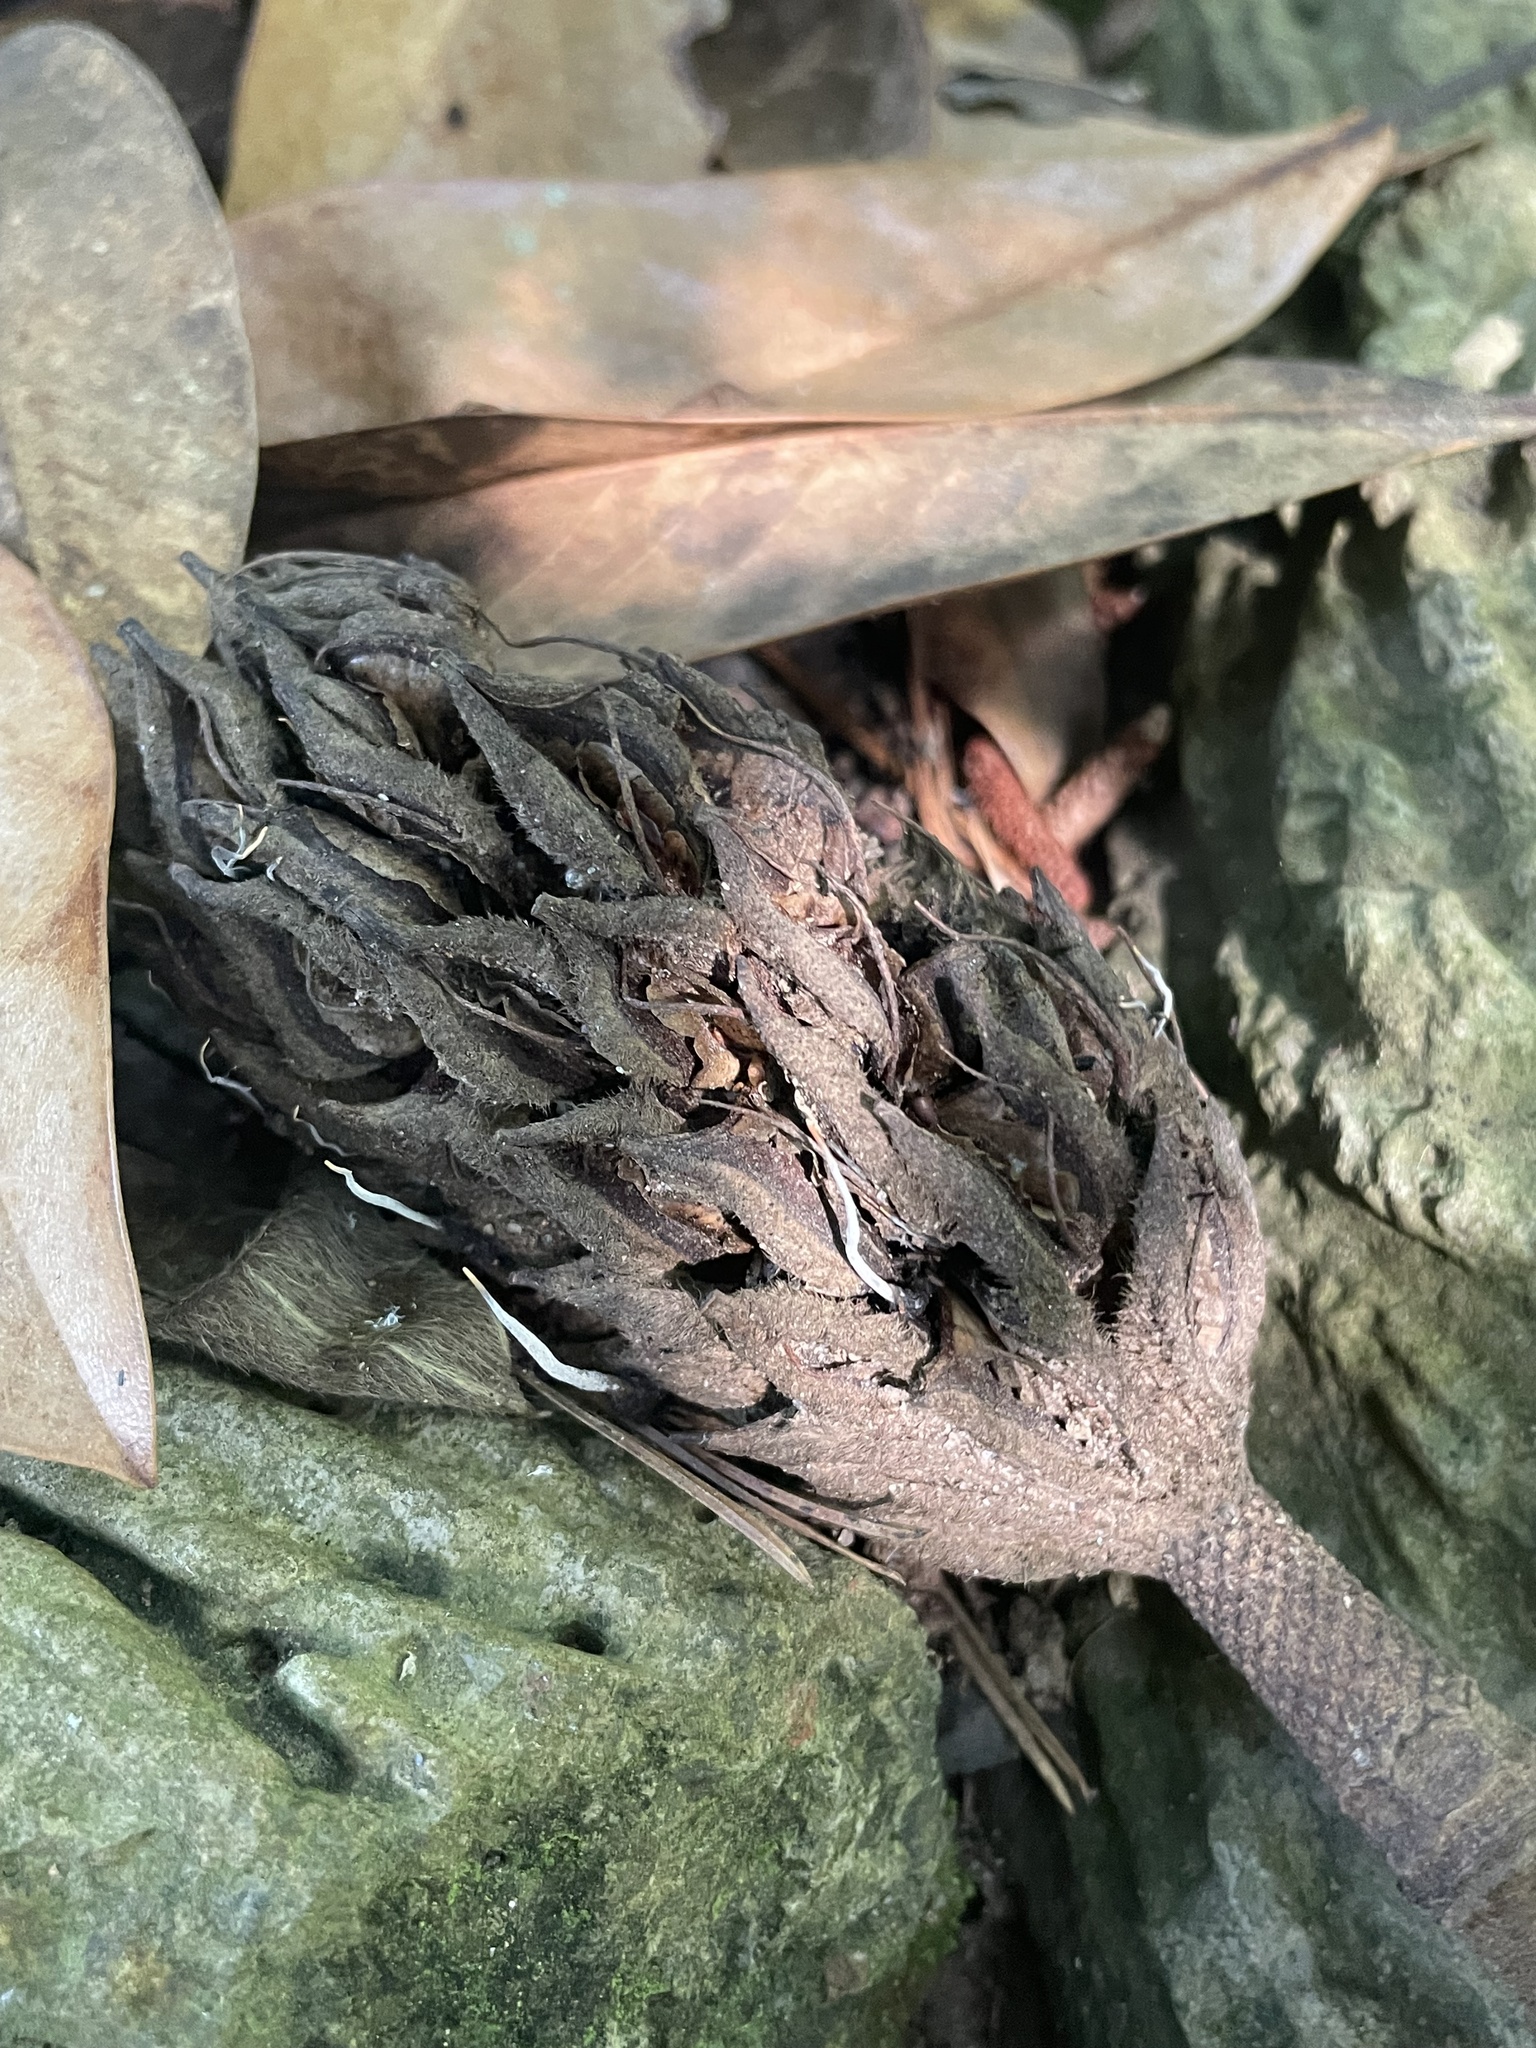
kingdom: Fungi
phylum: Ascomycota
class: Sordariomycetes
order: Xylariales
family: Xylariaceae
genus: Xylaria
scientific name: Xylaria magnoliae
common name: Magnolia-cone xylaria
